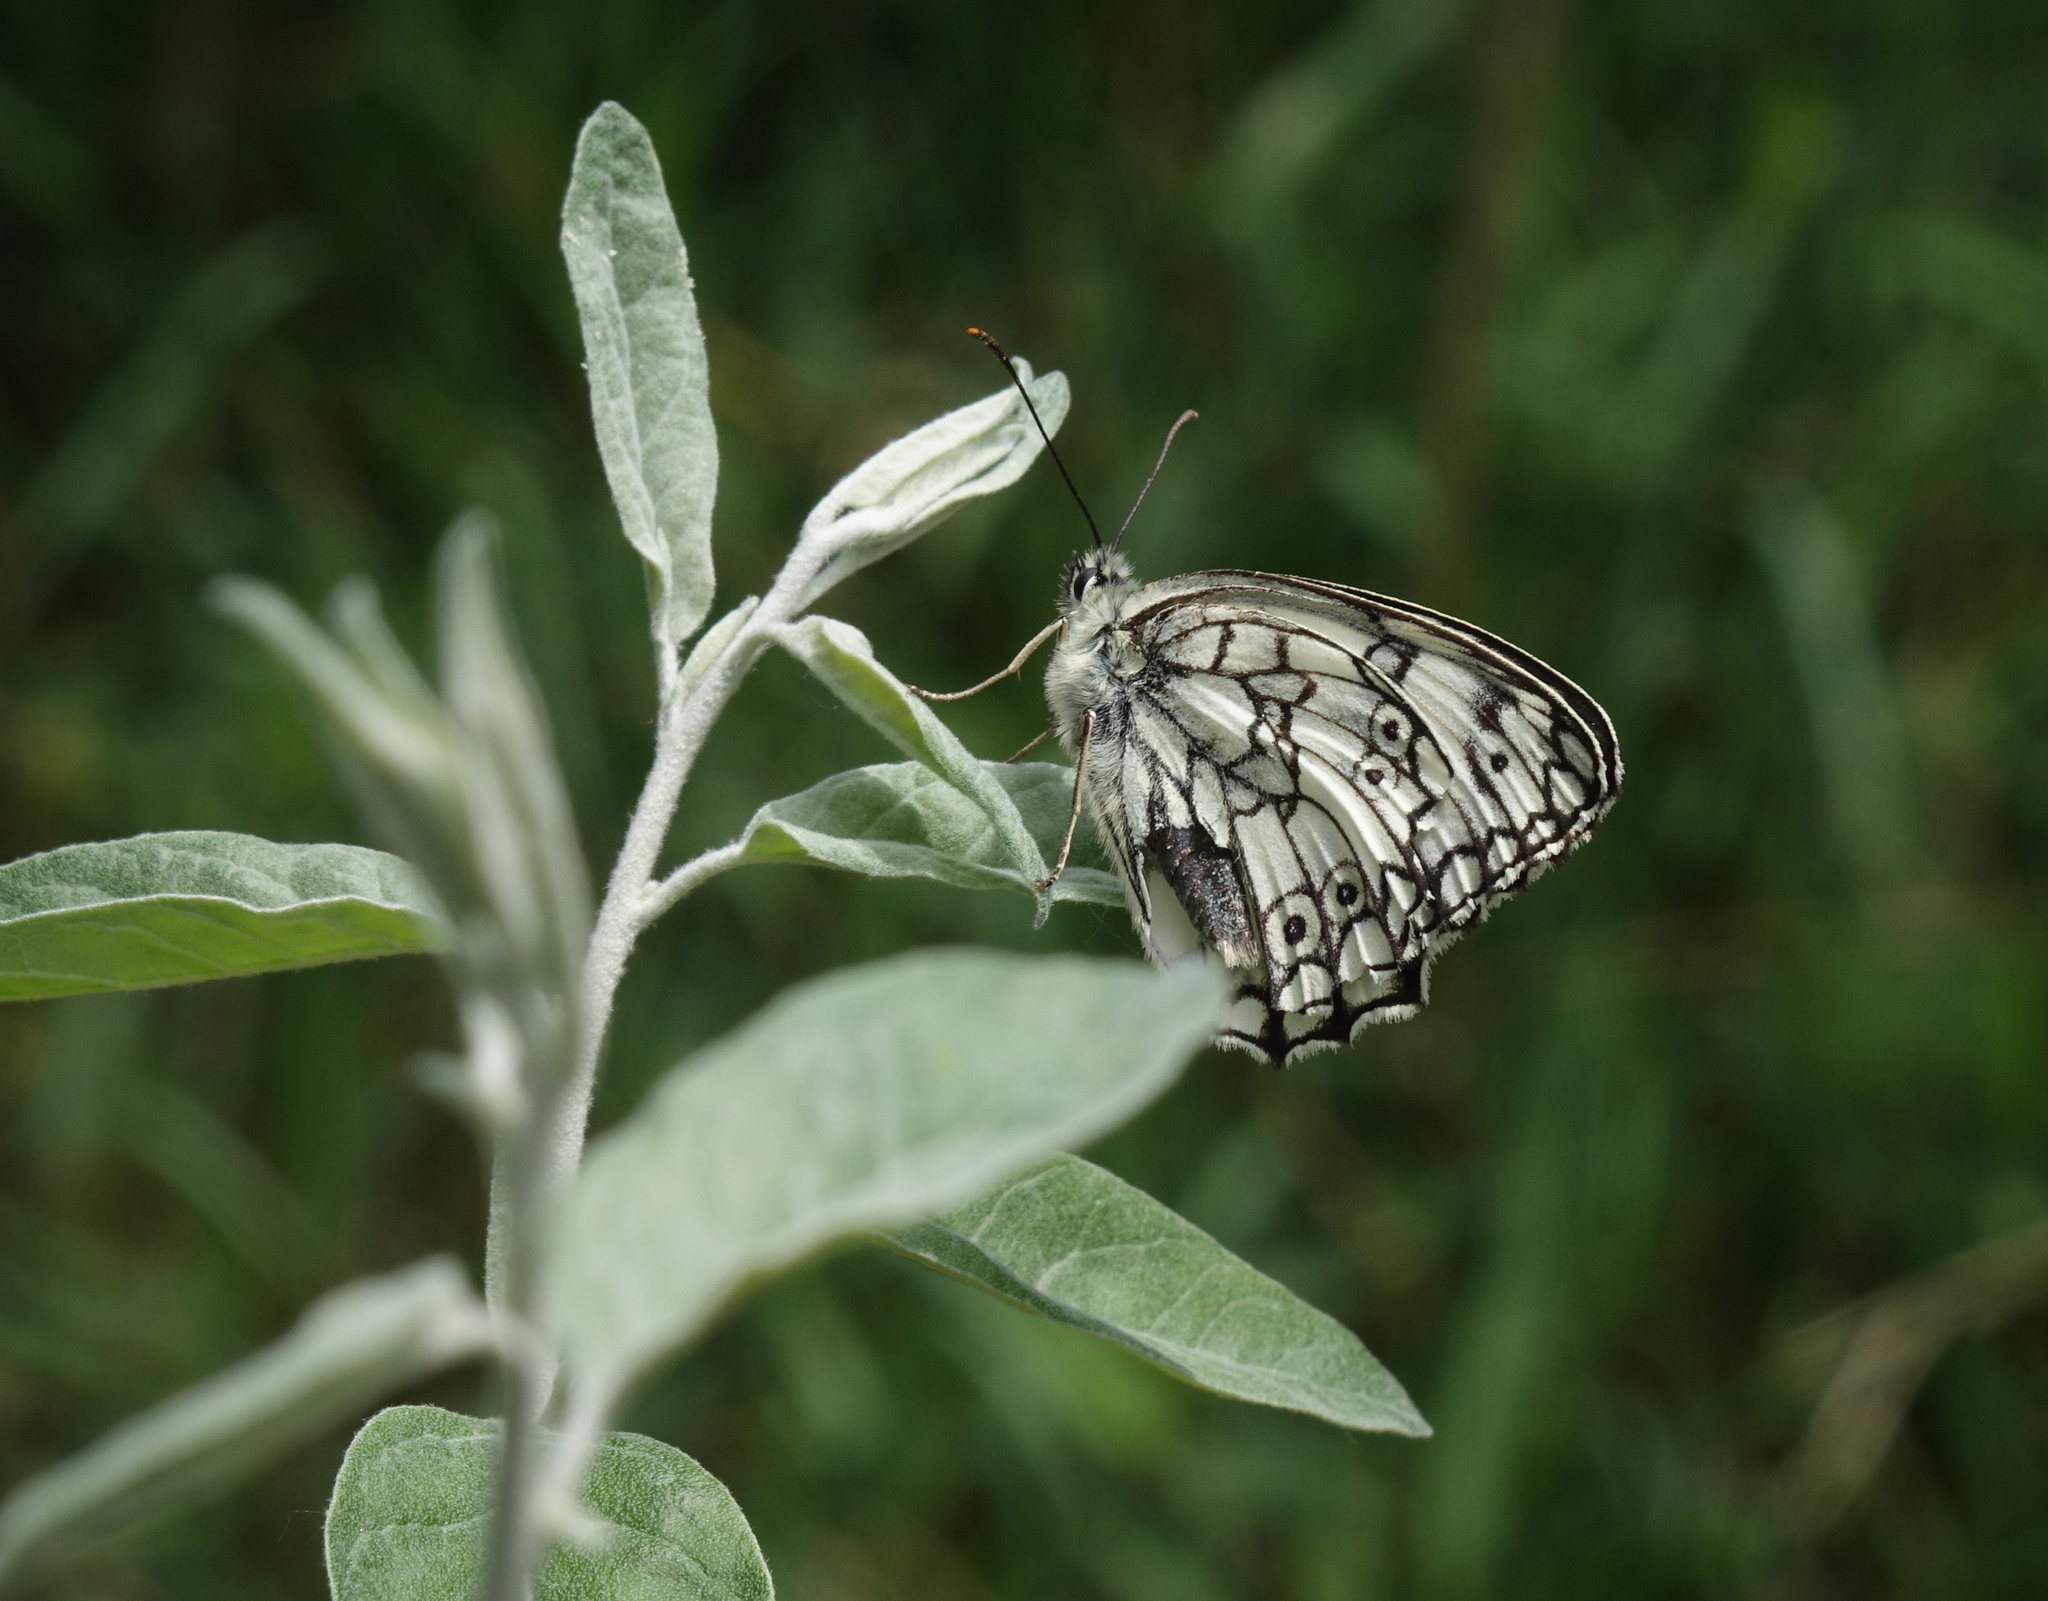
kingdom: Plantae
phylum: Tracheophyta
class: Magnoliopsida
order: Rosales
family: Elaeagnaceae
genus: Elaeagnus
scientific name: Elaeagnus angustifolia
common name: Russian olive
